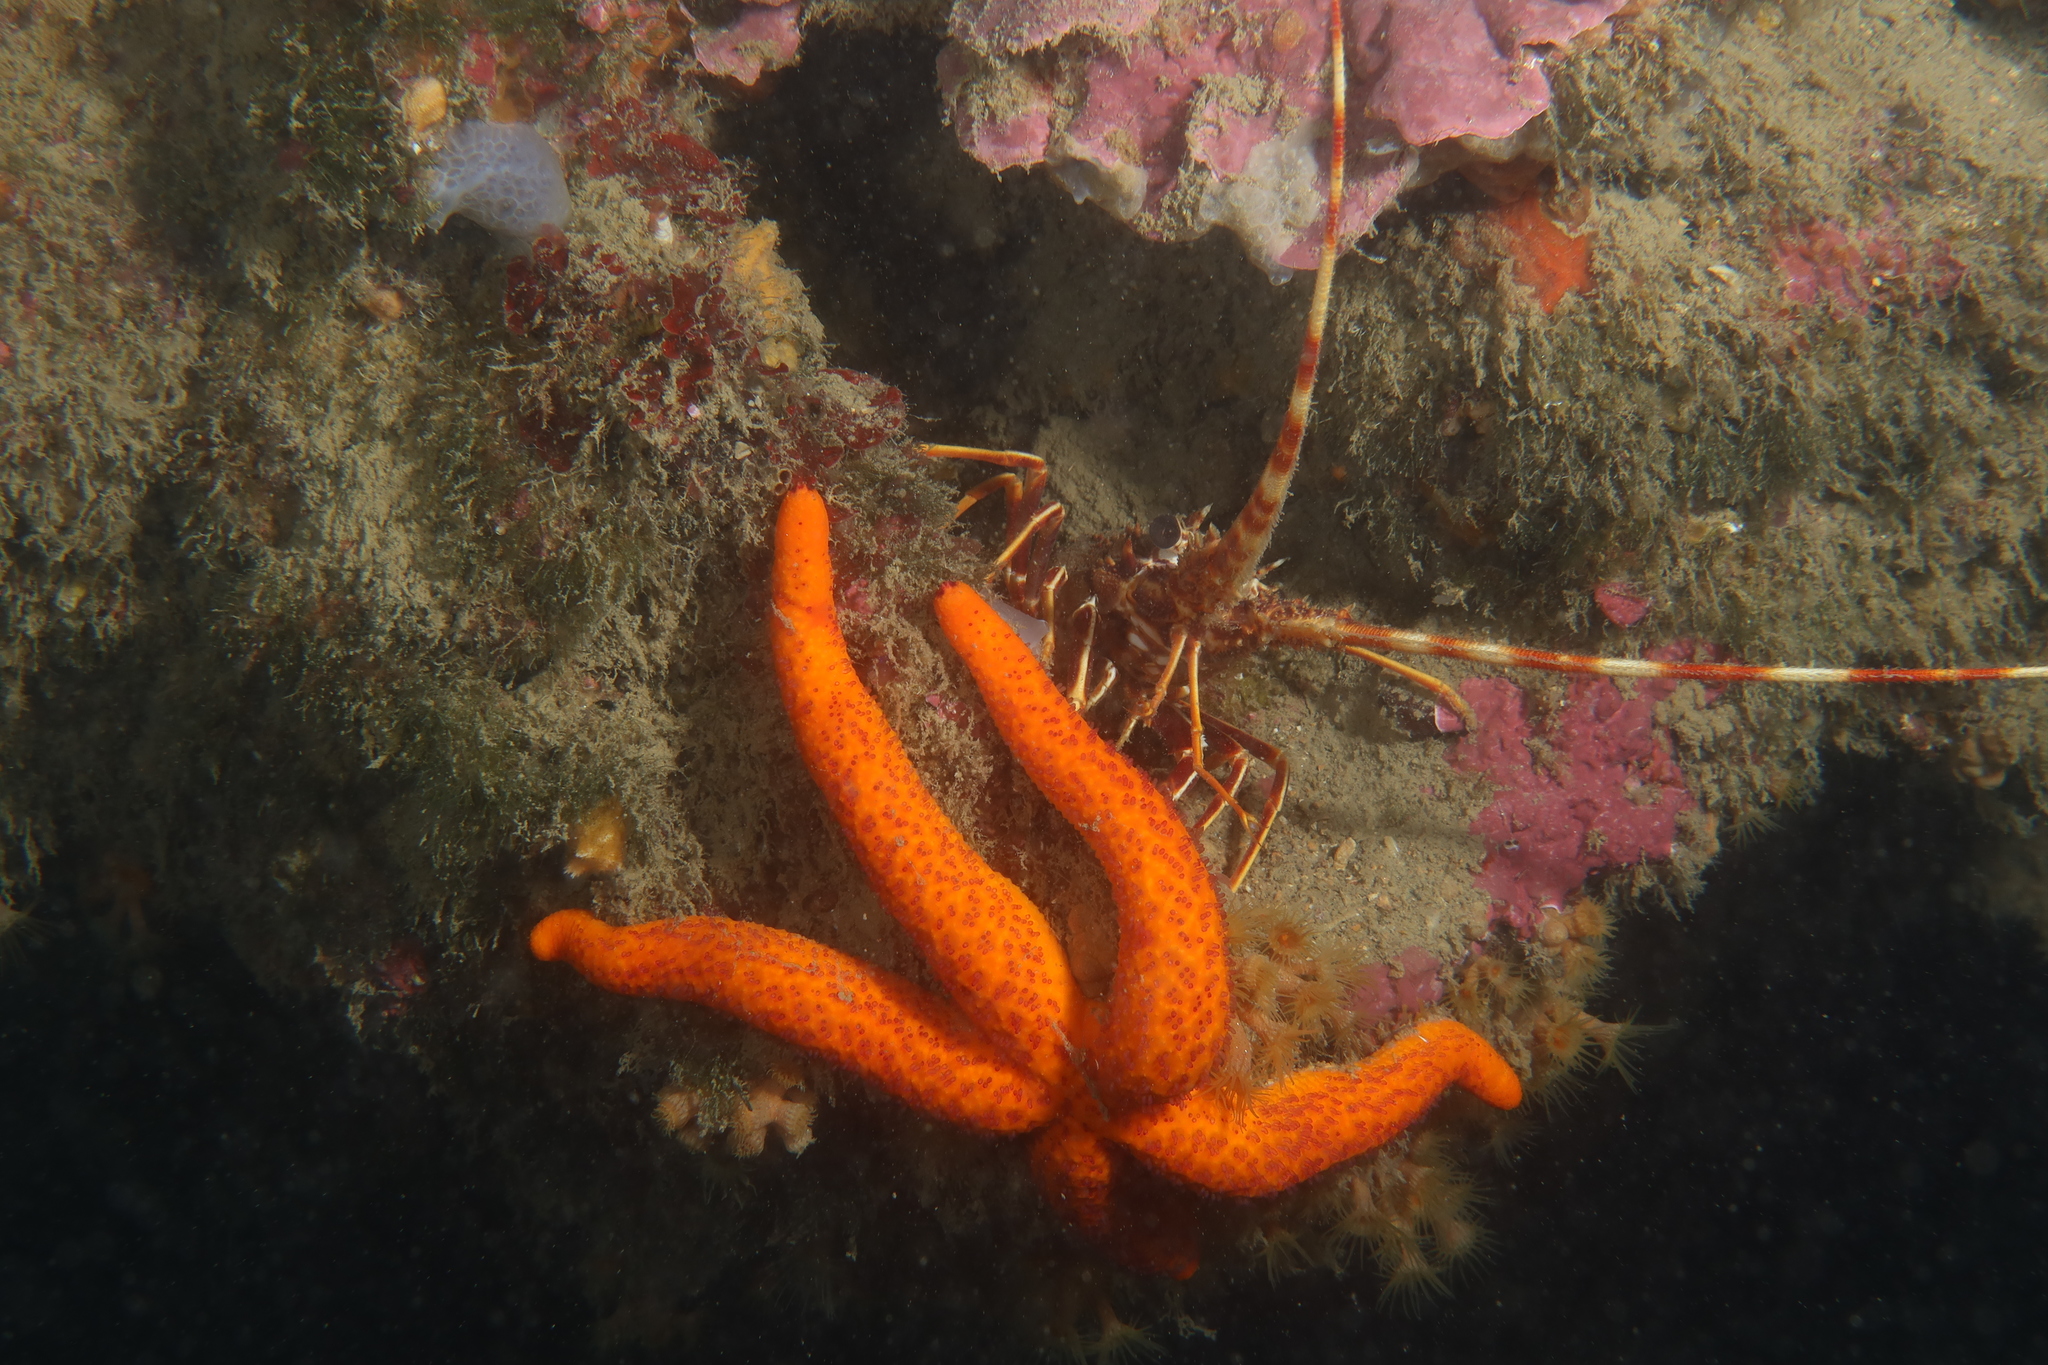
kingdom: Animalia
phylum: Arthropoda
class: Malacostraca
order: Decapoda
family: Palinuridae
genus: Palinurus
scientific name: Palinurus elephas
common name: European spiny lobster
